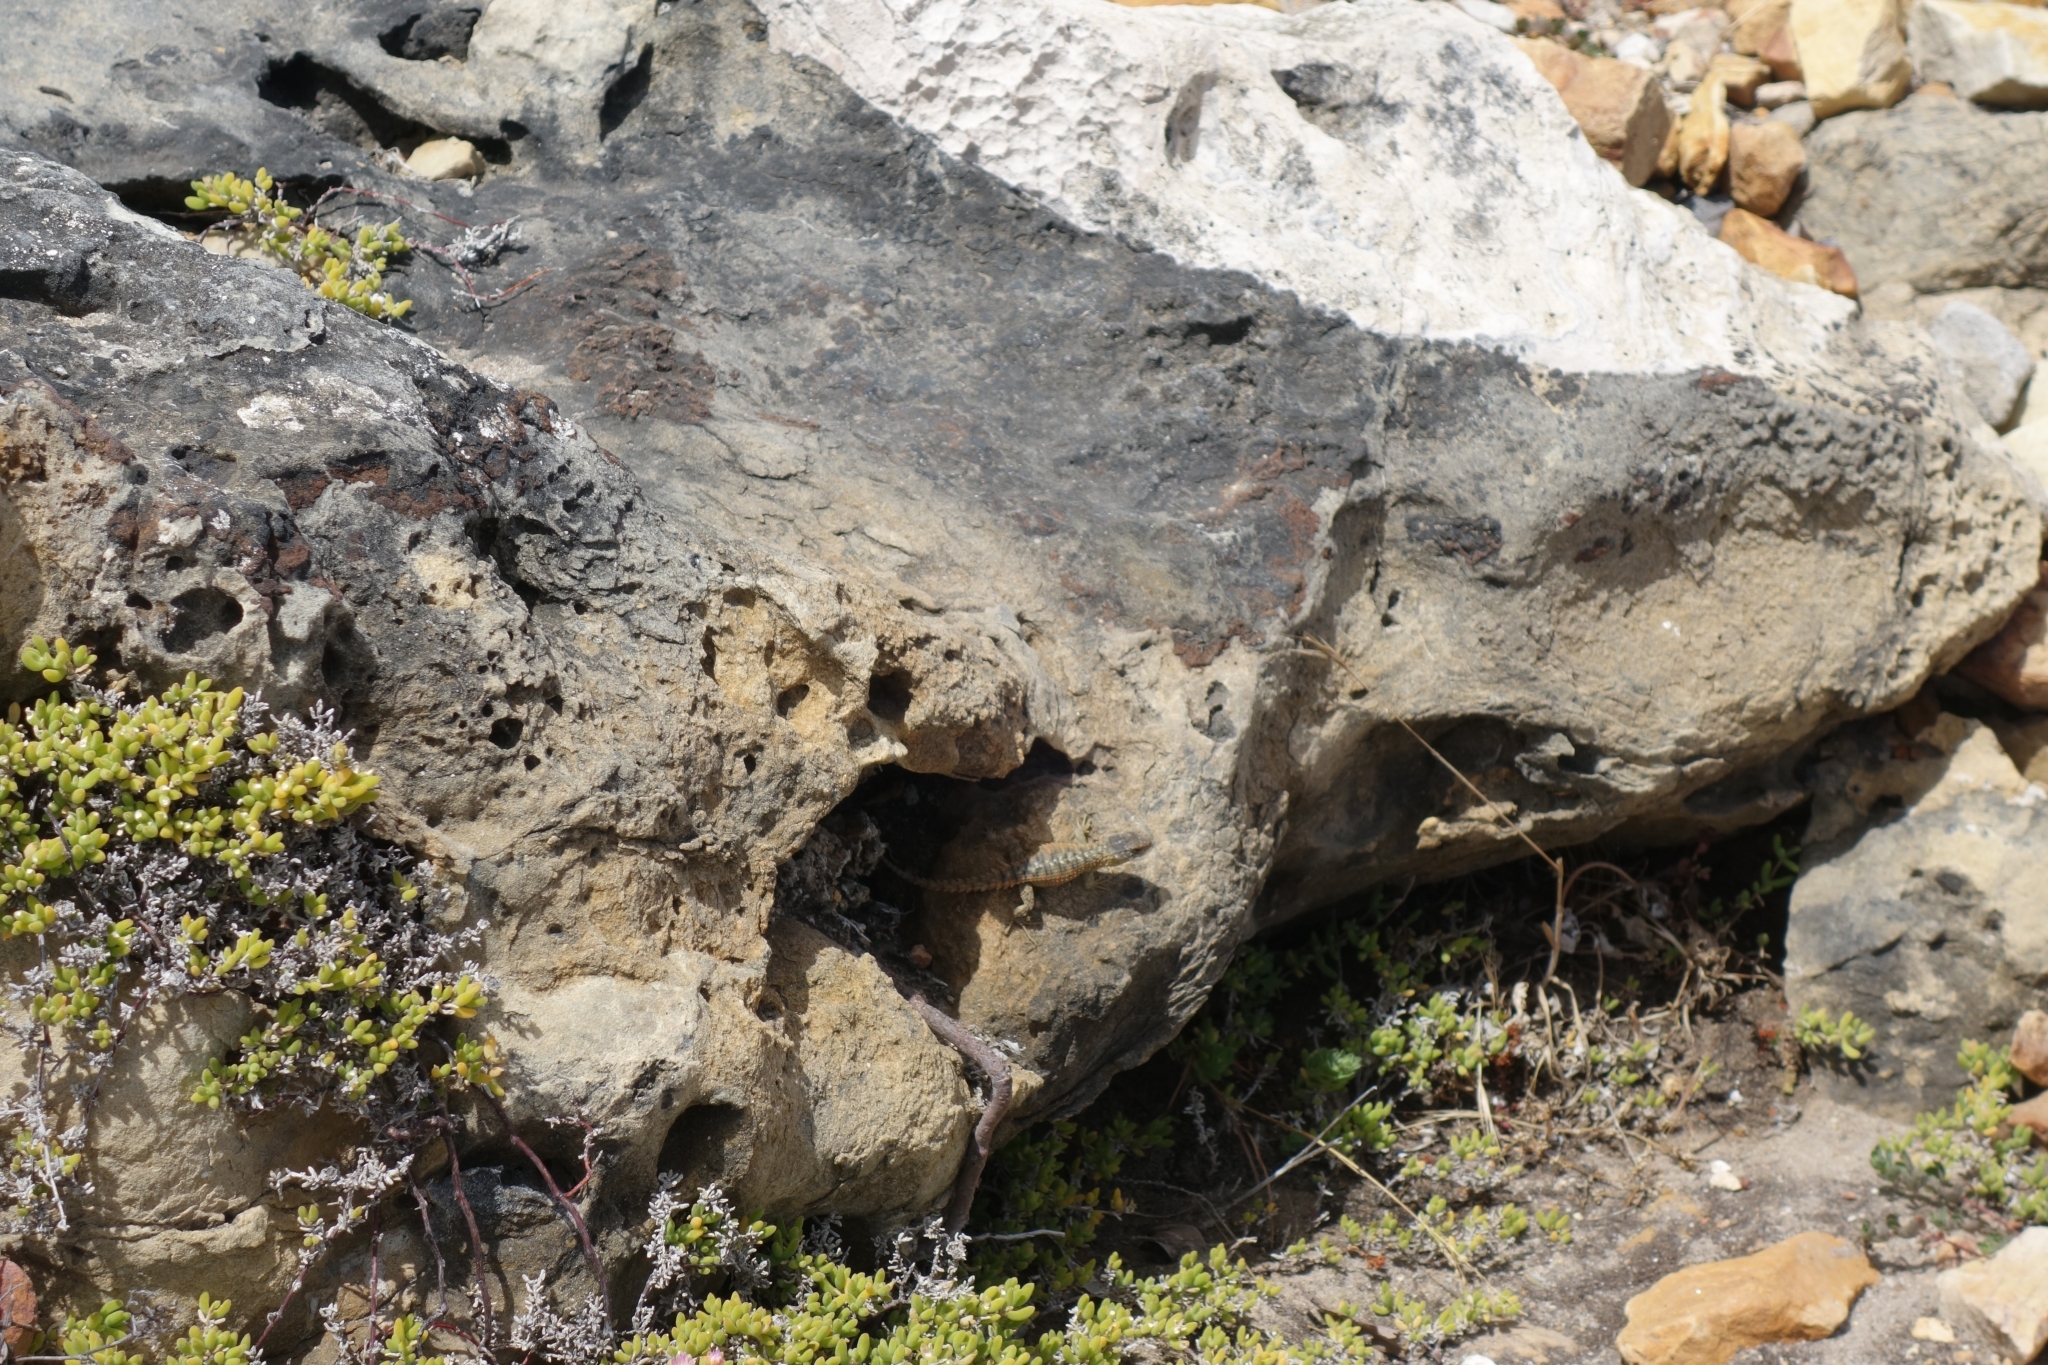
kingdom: Animalia
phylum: Chordata
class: Squamata
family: Cordylidae
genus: Cordylus
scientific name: Cordylus cordylus
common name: Cape girdled lizard
